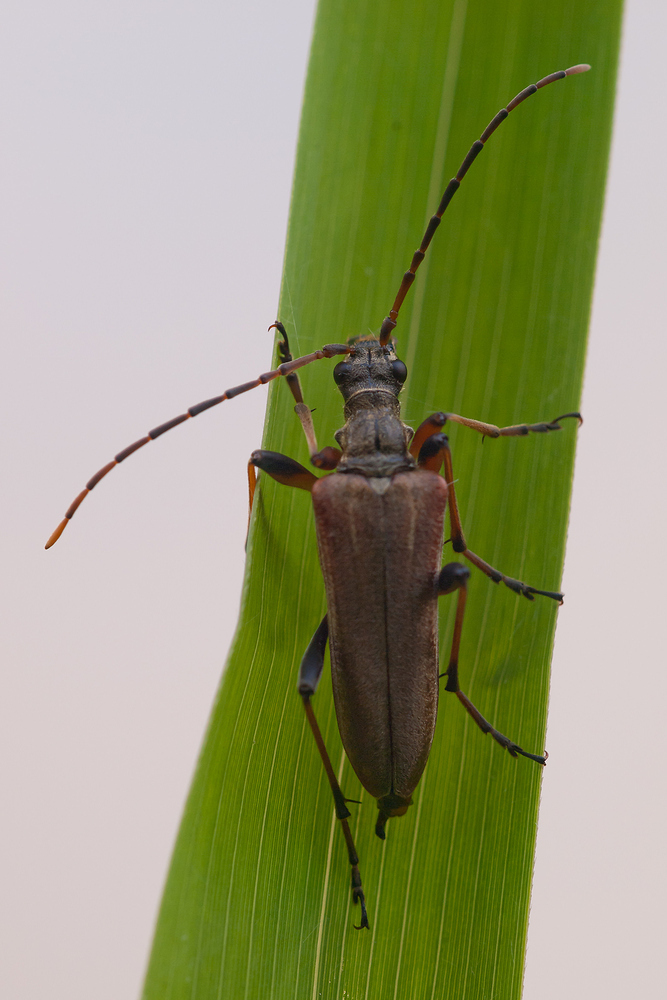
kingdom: Animalia
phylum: Arthropoda
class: Insecta
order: Coleoptera
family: Cerambycidae
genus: Stenocorus
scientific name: Stenocorus meridianus
